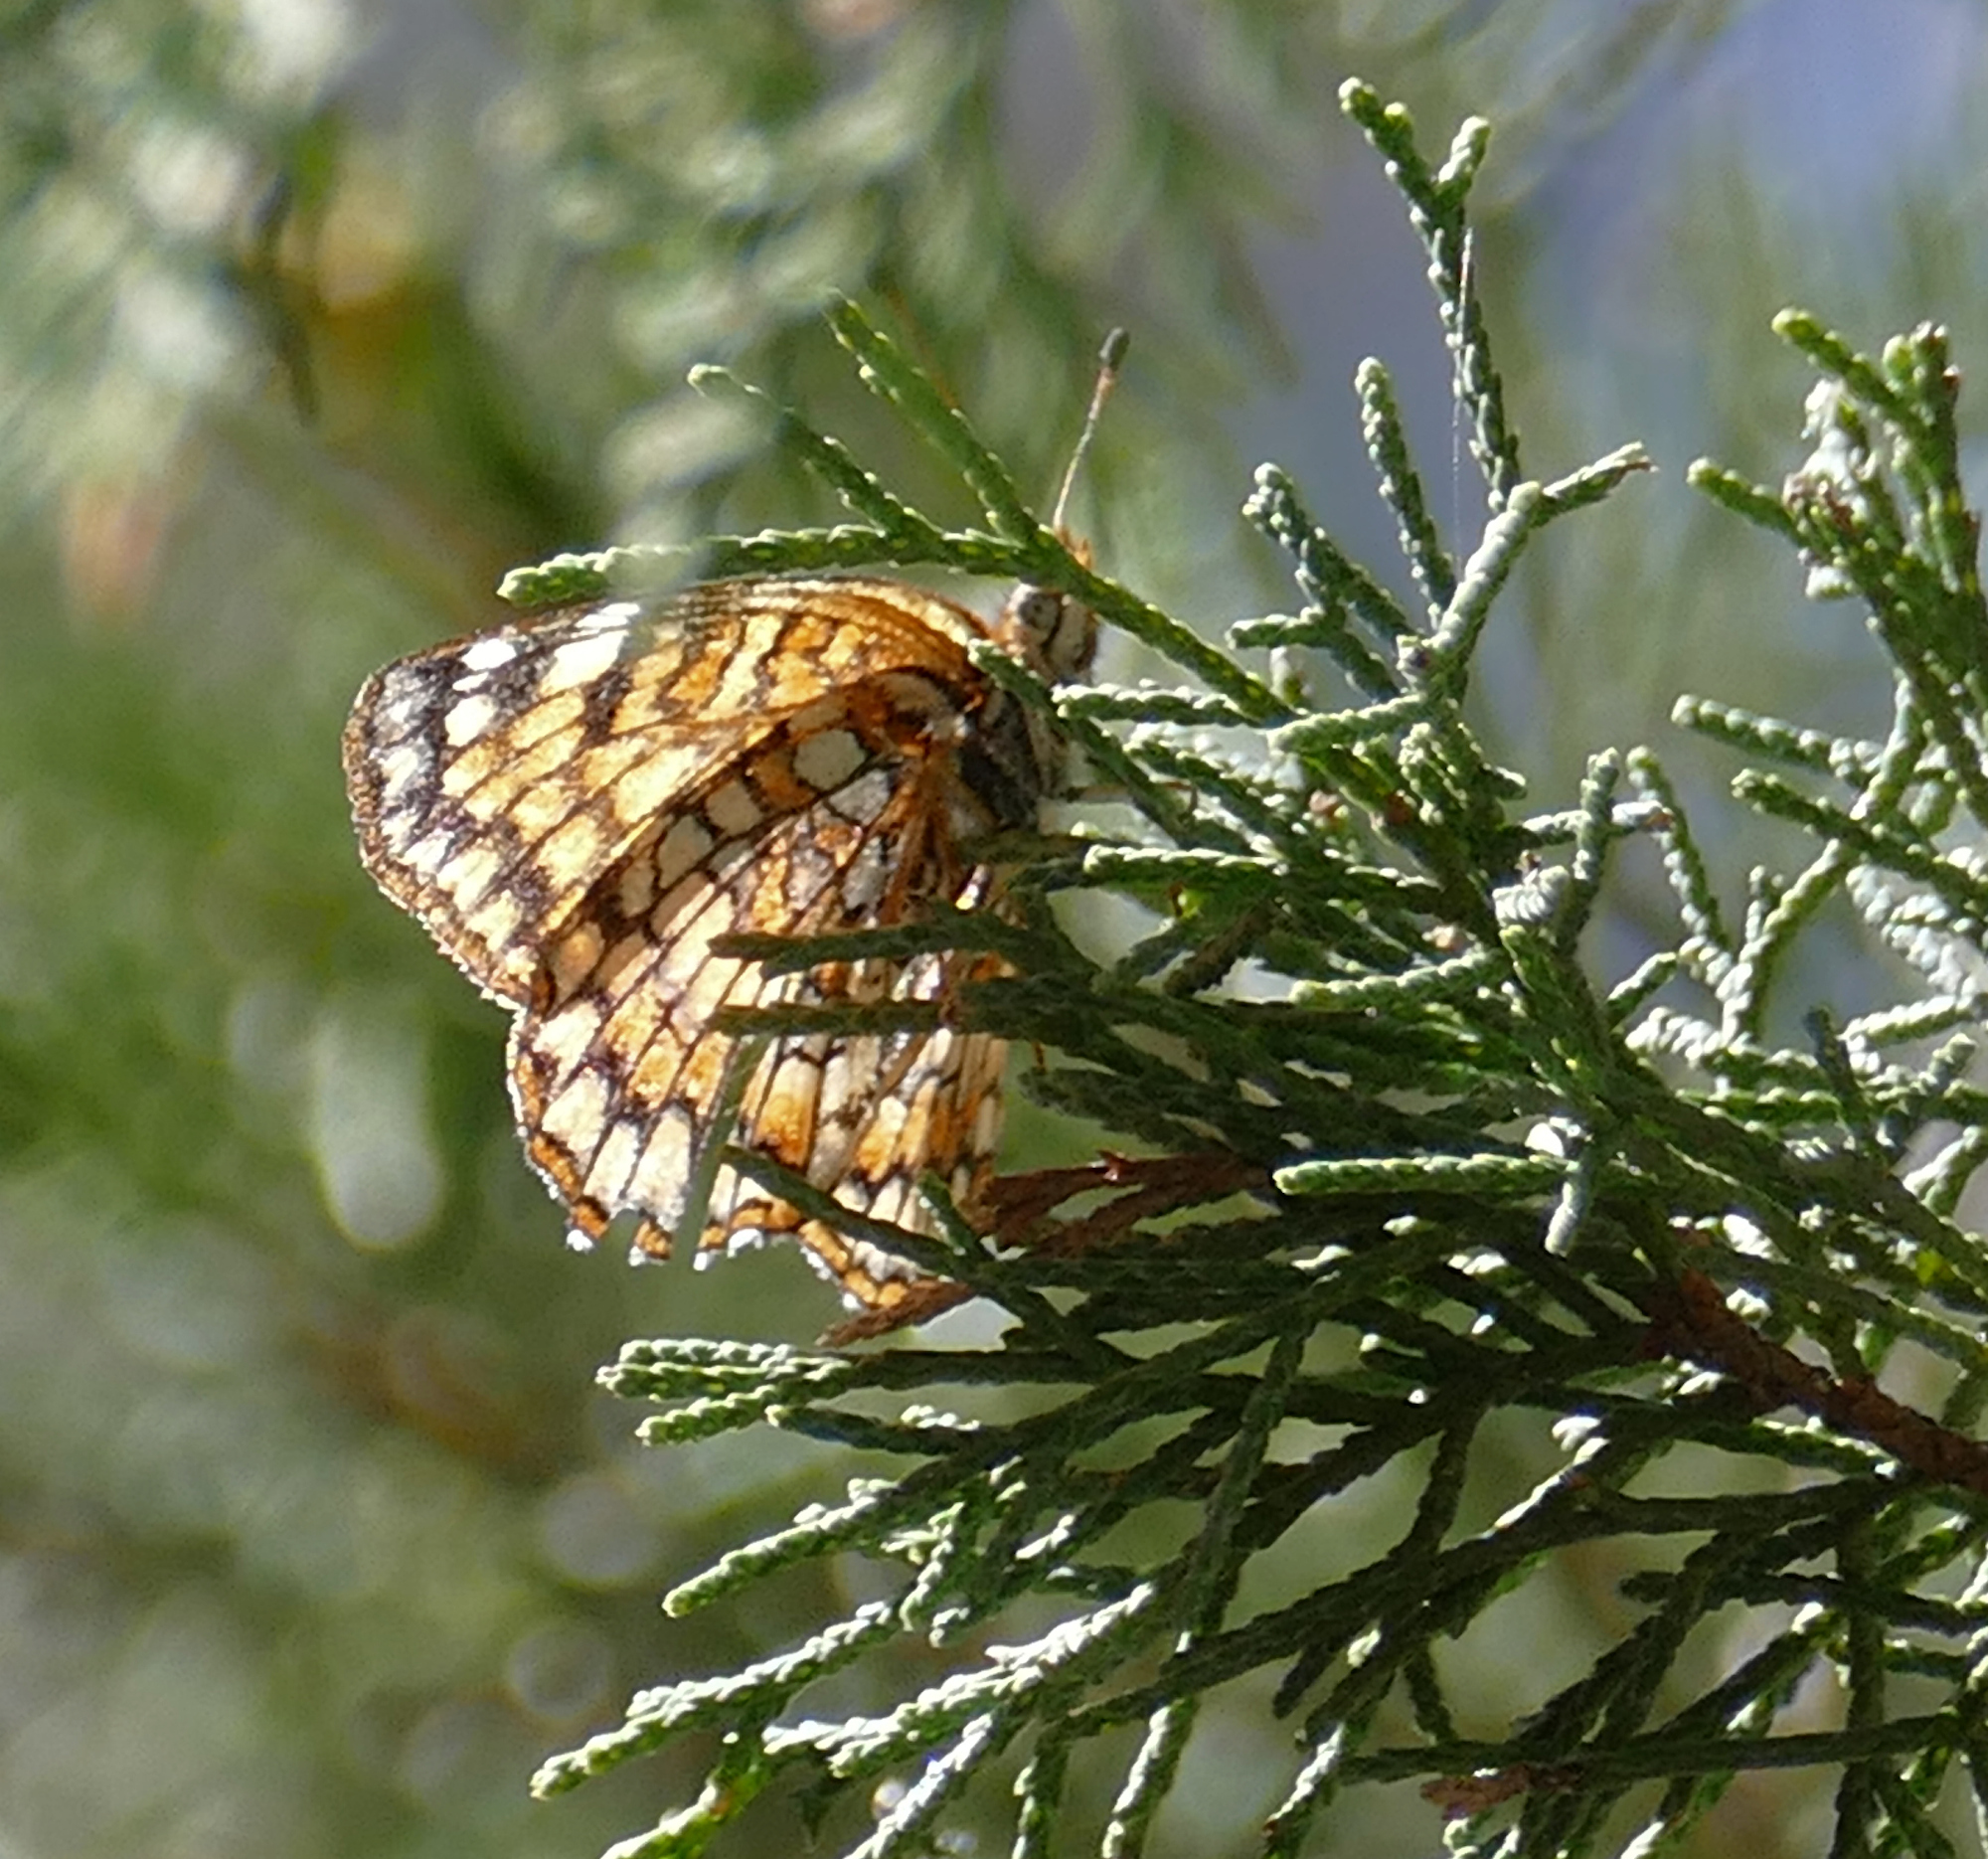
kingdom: Animalia
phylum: Arthropoda
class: Insecta
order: Lepidoptera
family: Nymphalidae
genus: Chlosyne
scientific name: Chlosyne acastus
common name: Sagebrush checkerspot
